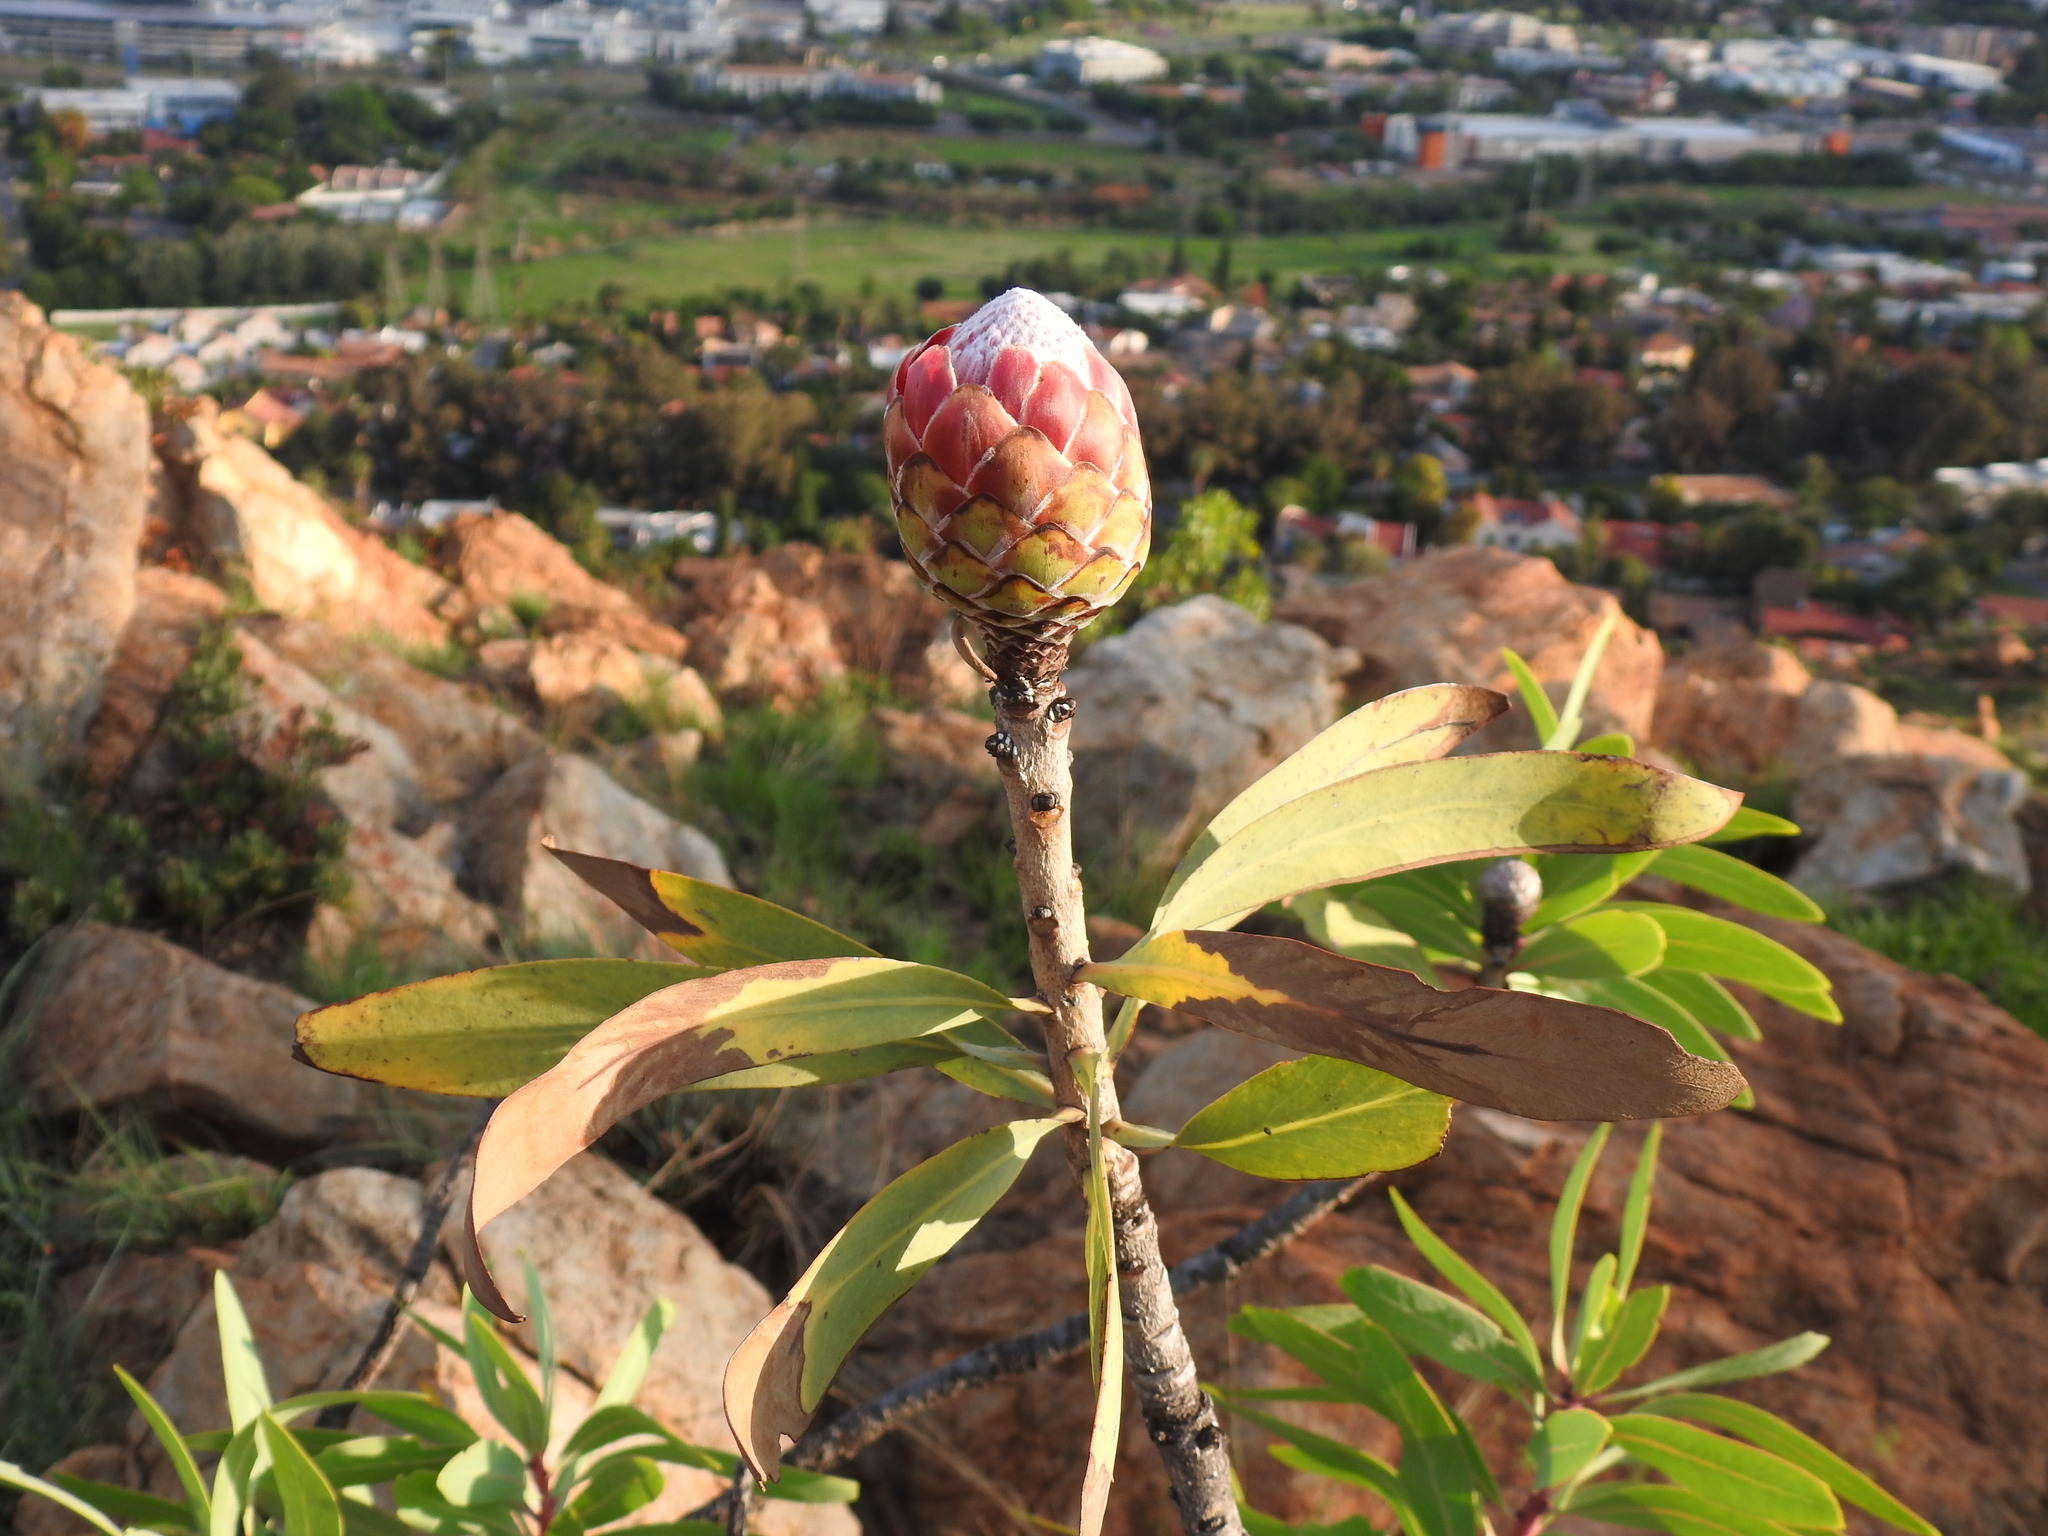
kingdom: Plantae
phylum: Tracheophyta
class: Magnoliopsida
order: Proteales
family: Proteaceae
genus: Protea
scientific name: Protea caffra
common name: Common sugarbush
